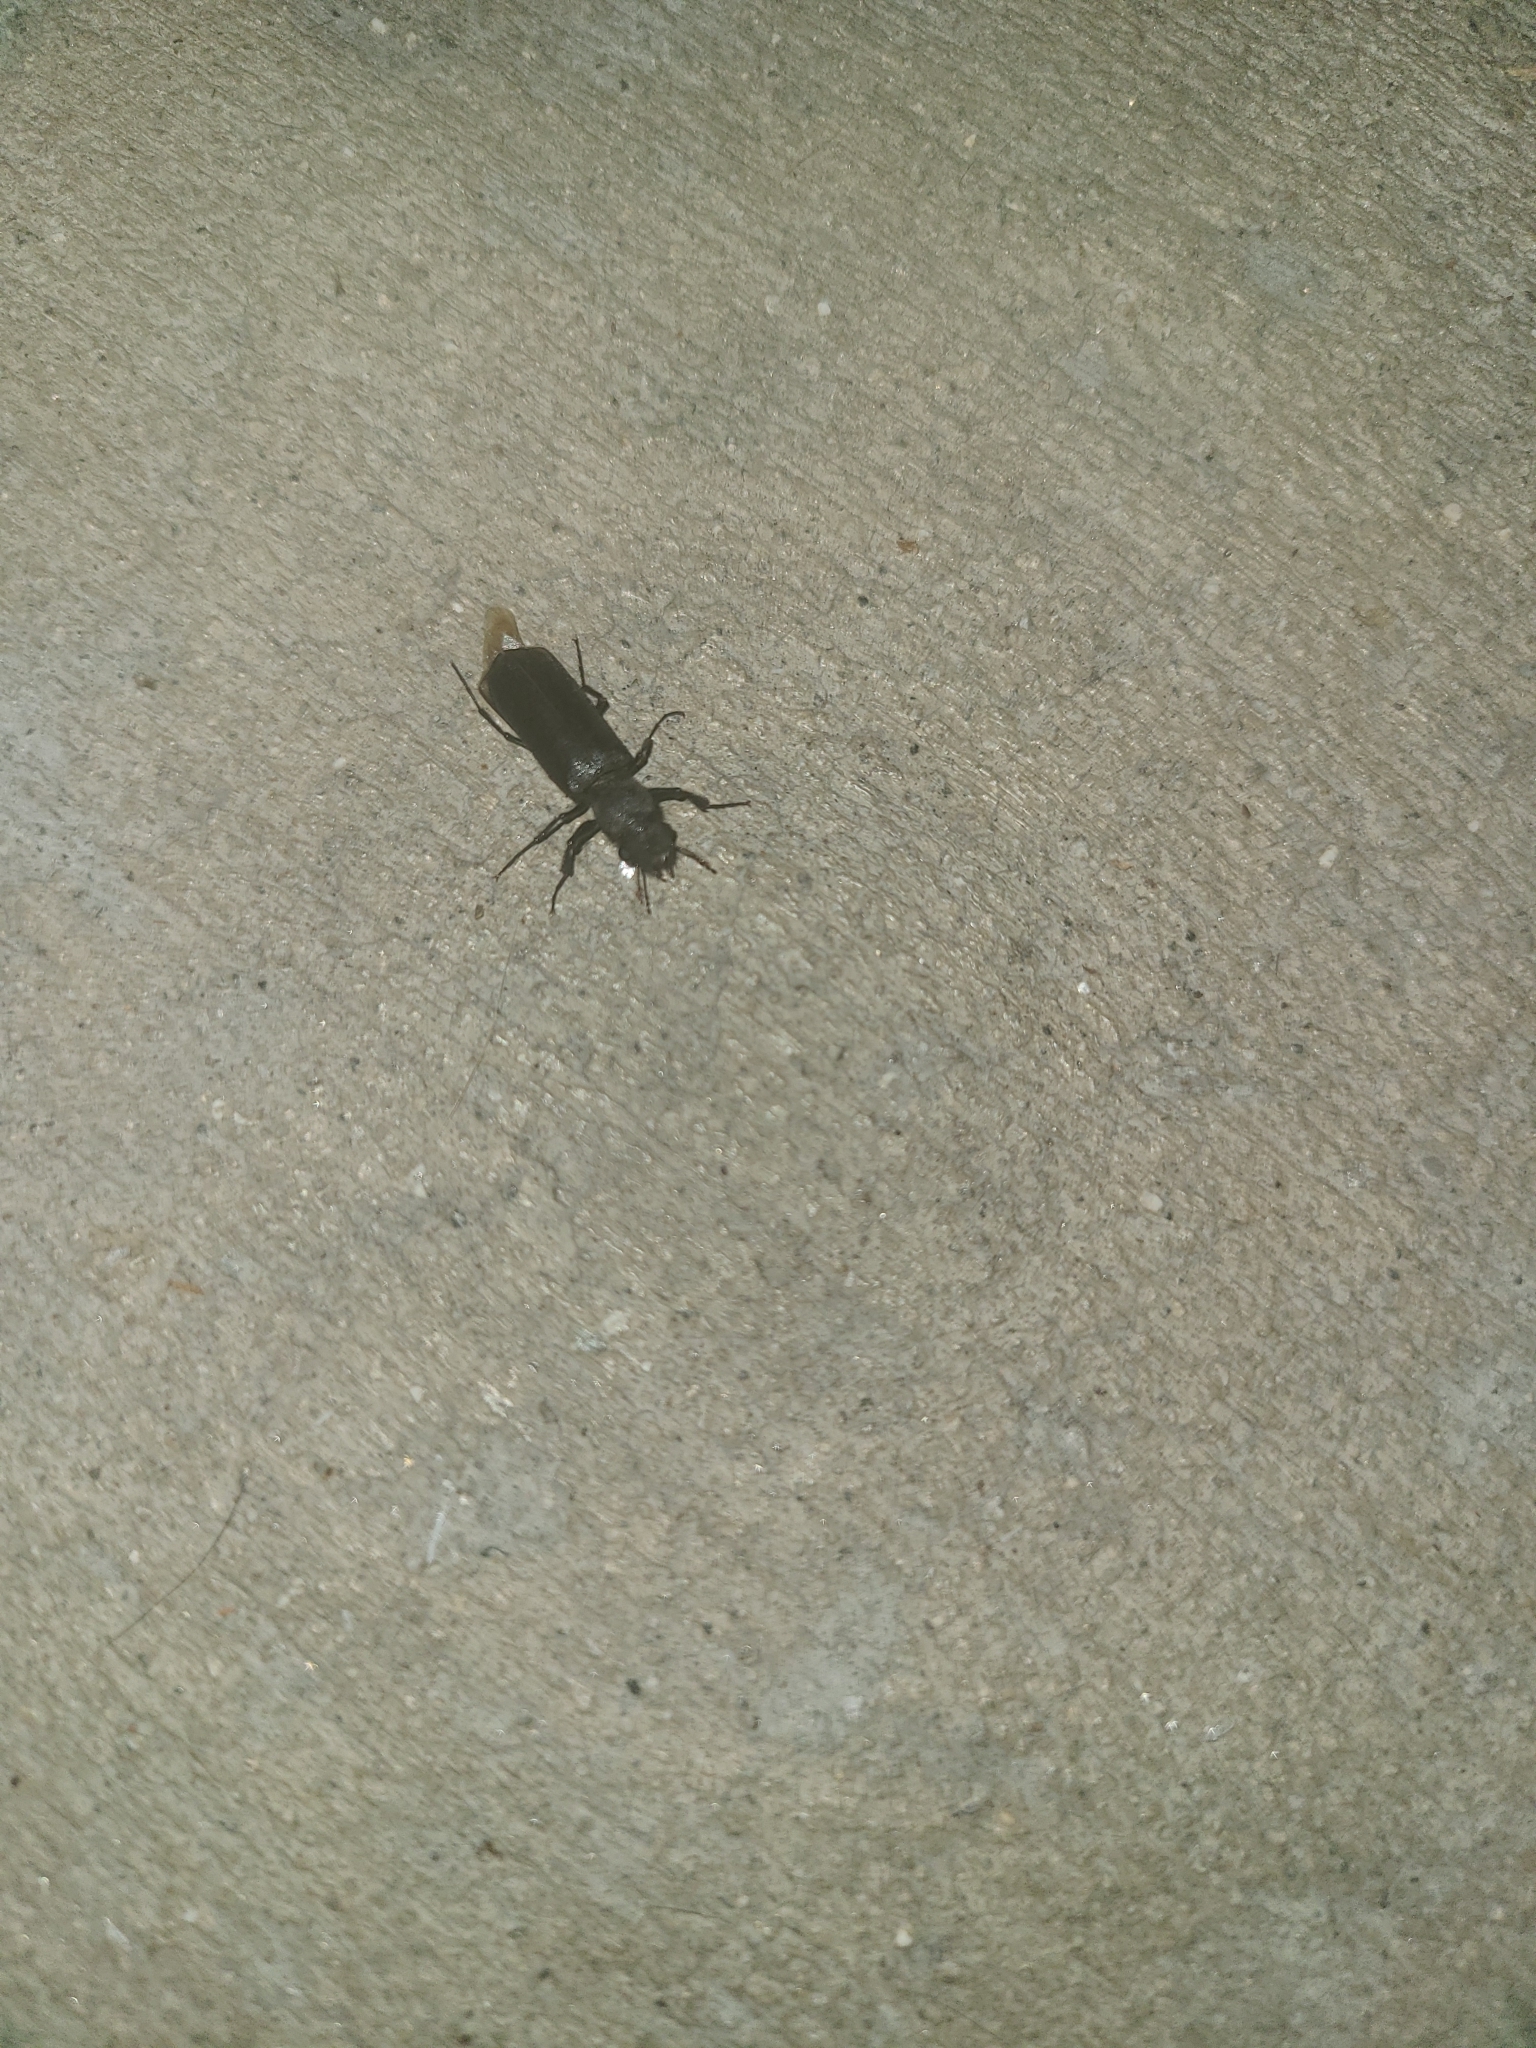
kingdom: Animalia
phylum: Arthropoda
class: Insecta
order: Coleoptera
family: Bostrichidae
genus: Polycaon
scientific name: Polycaon stoutii
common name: Powderpost beetle
